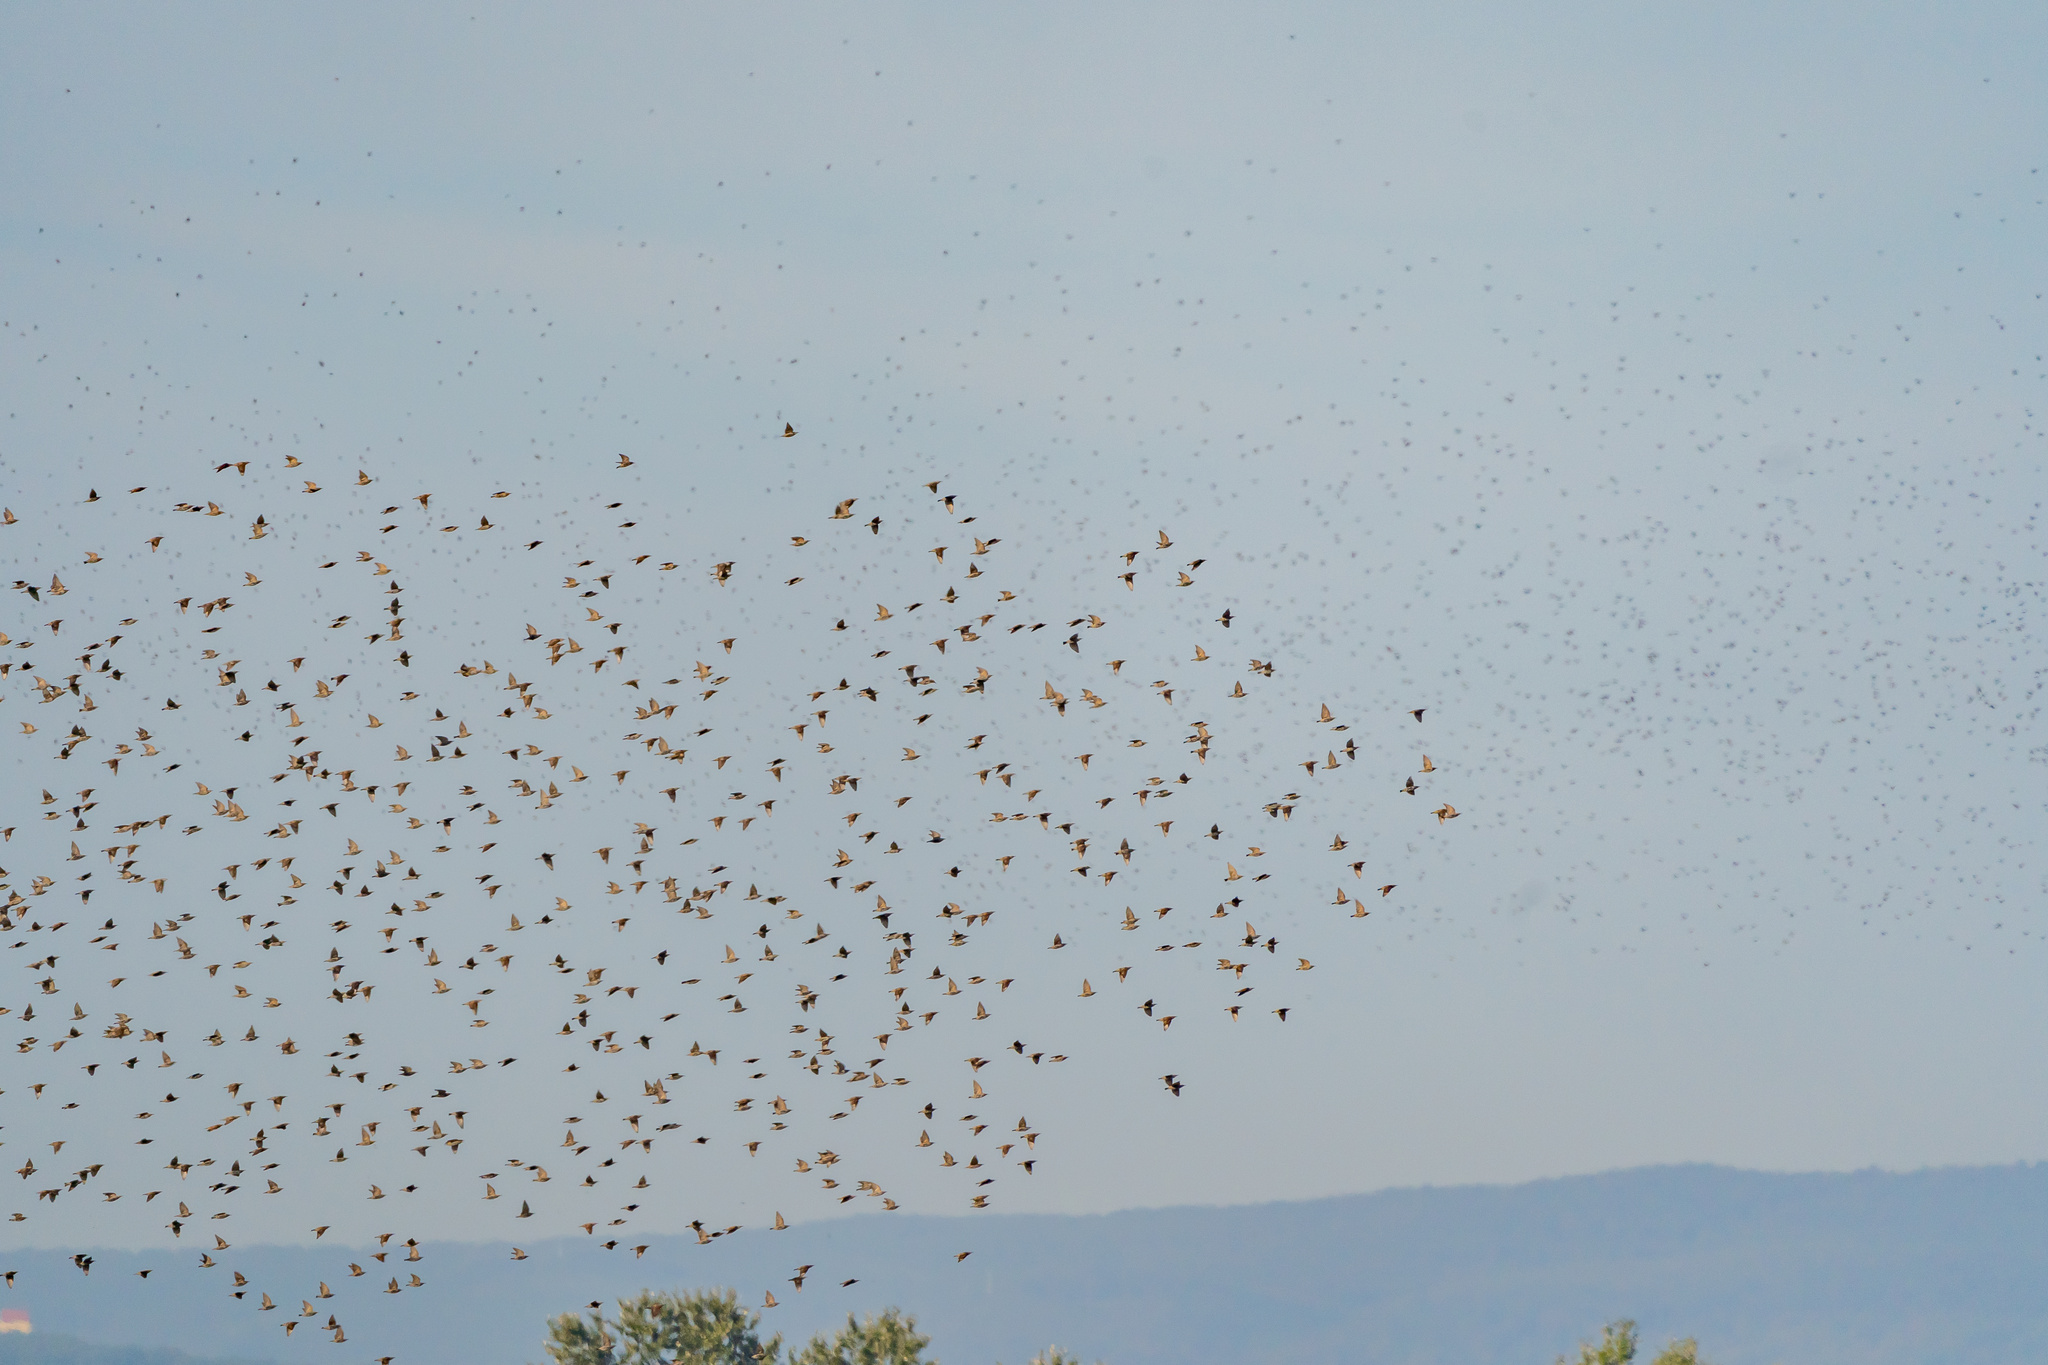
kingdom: Animalia
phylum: Chordata
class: Aves
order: Passeriformes
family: Sturnidae
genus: Sturnus
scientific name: Sturnus vulgaris
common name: Common starling
